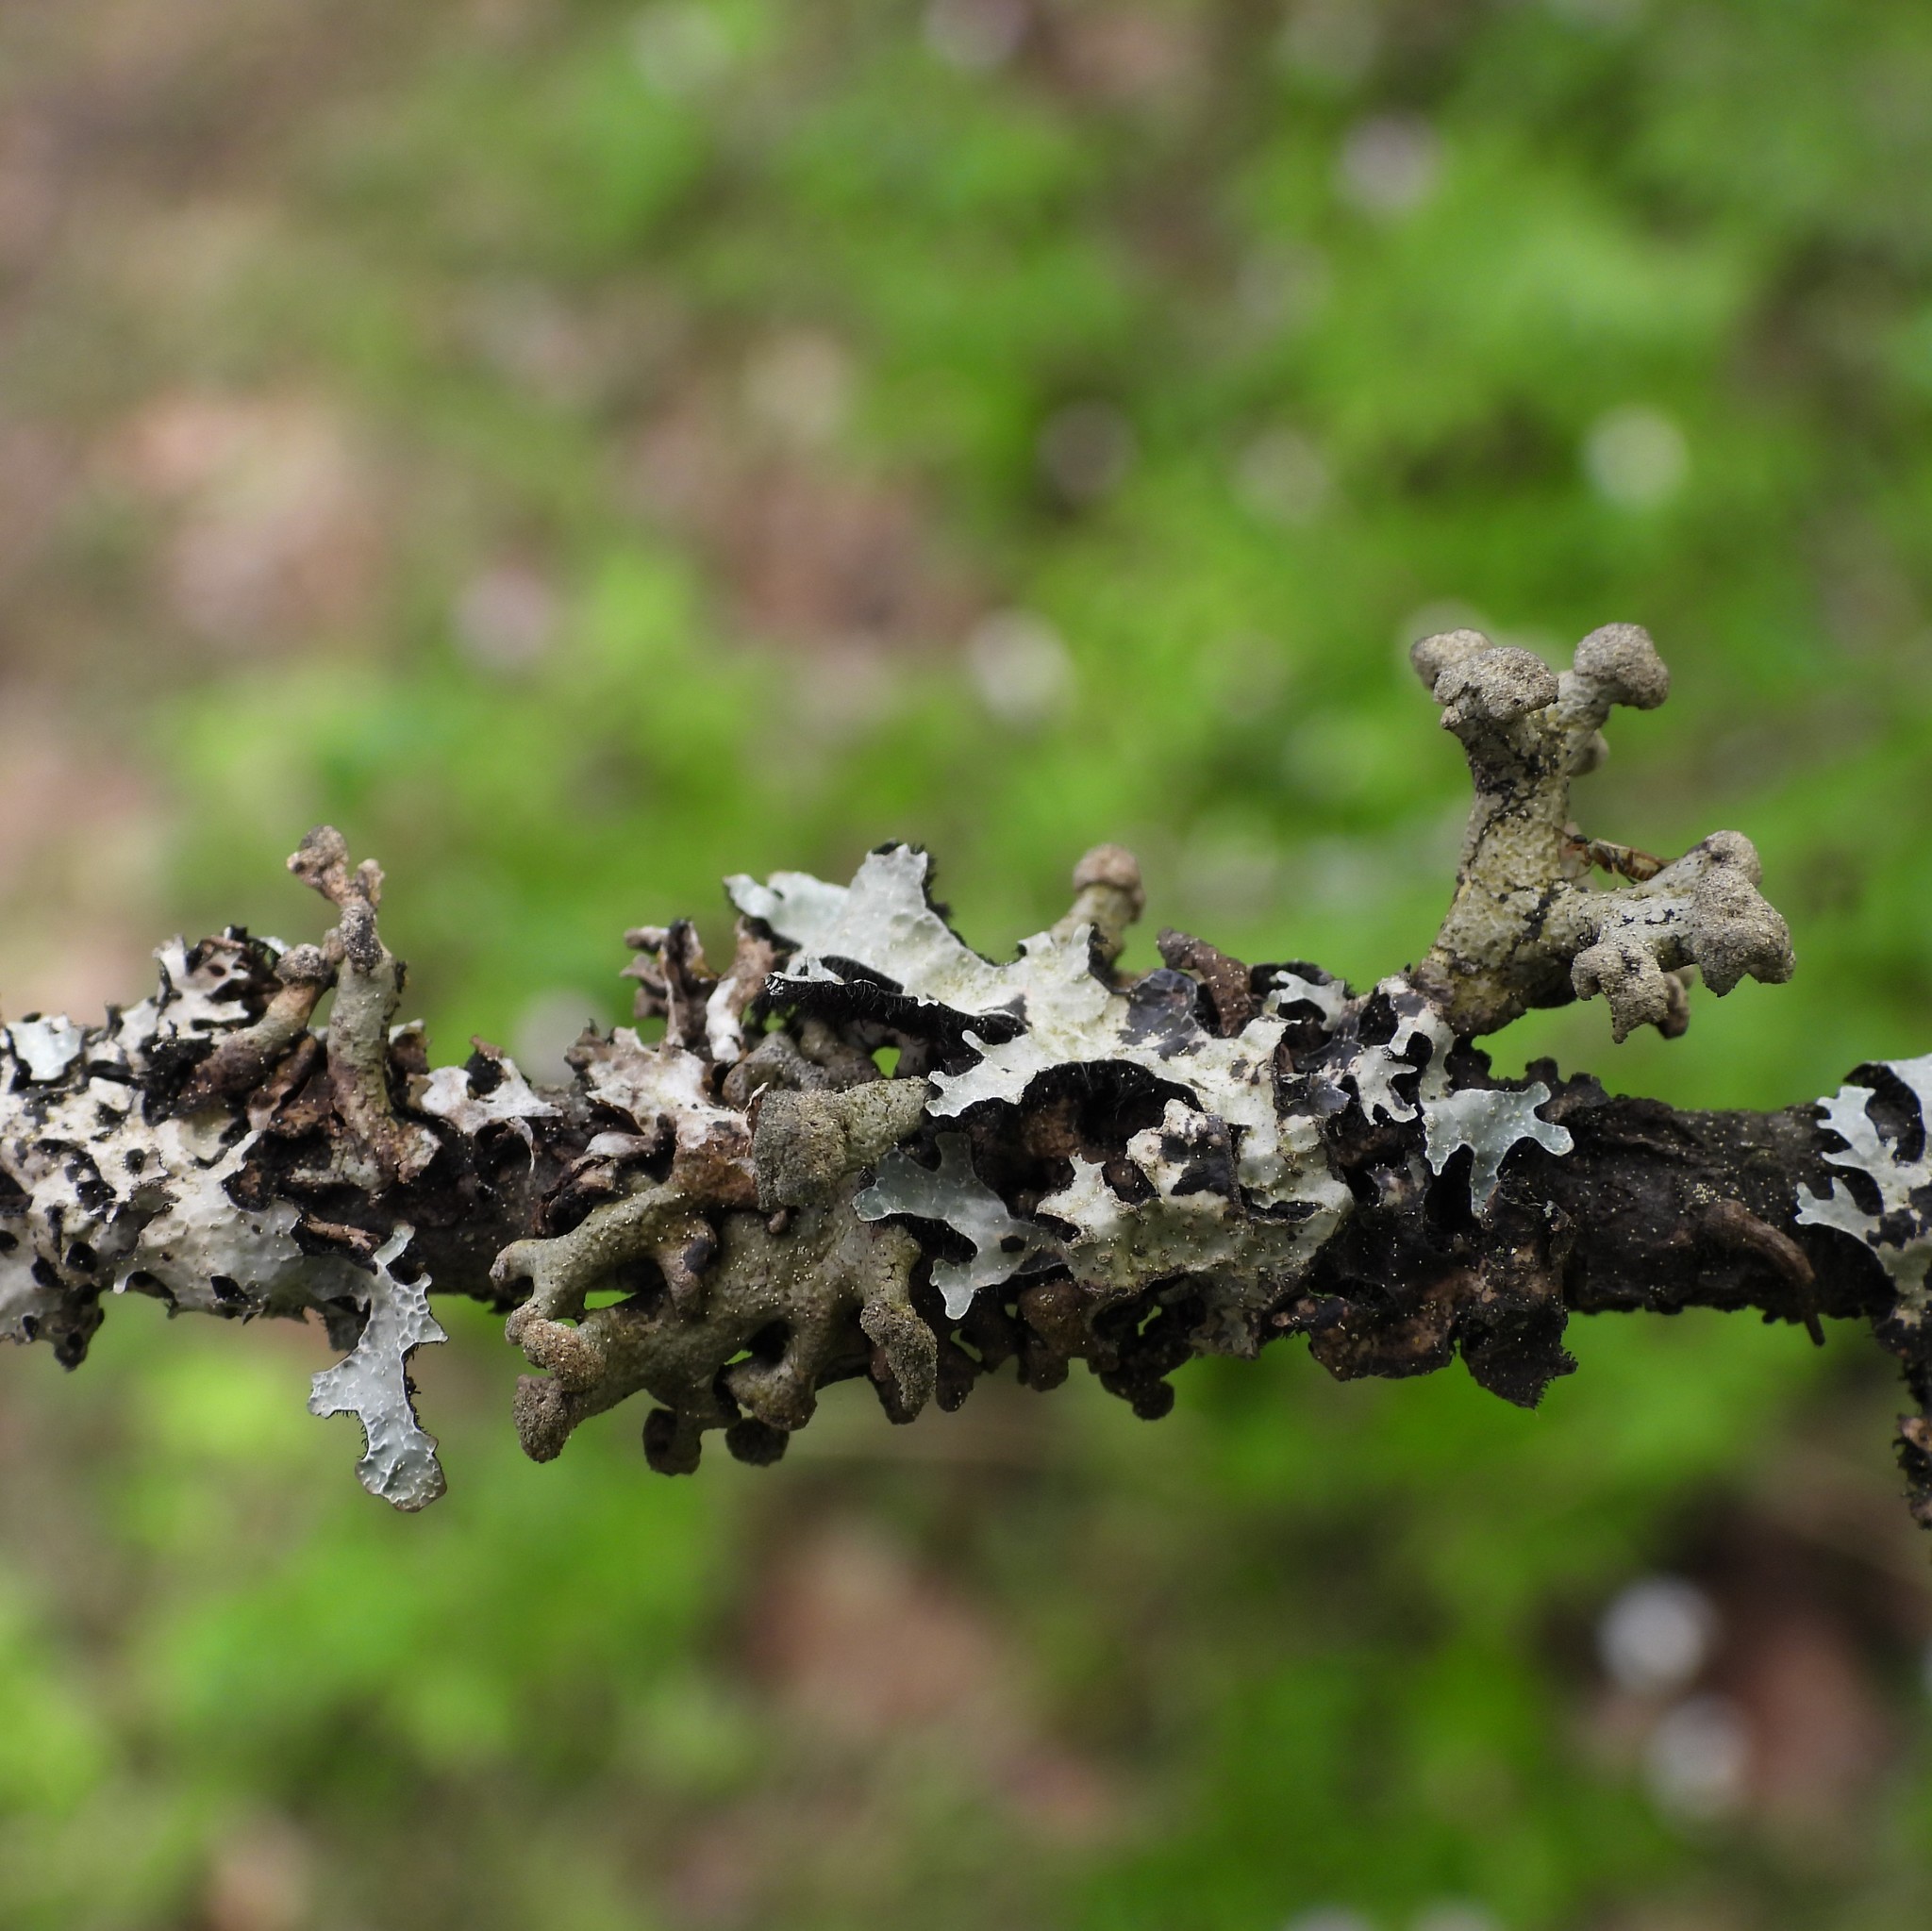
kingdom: Fungi
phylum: Ascomycota
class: Lecanoromycetes
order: Lecanorales
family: Parmeliaceae
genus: Hypogymnia
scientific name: Hypogymnia tubulosa
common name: Powder-headed tube lichen
